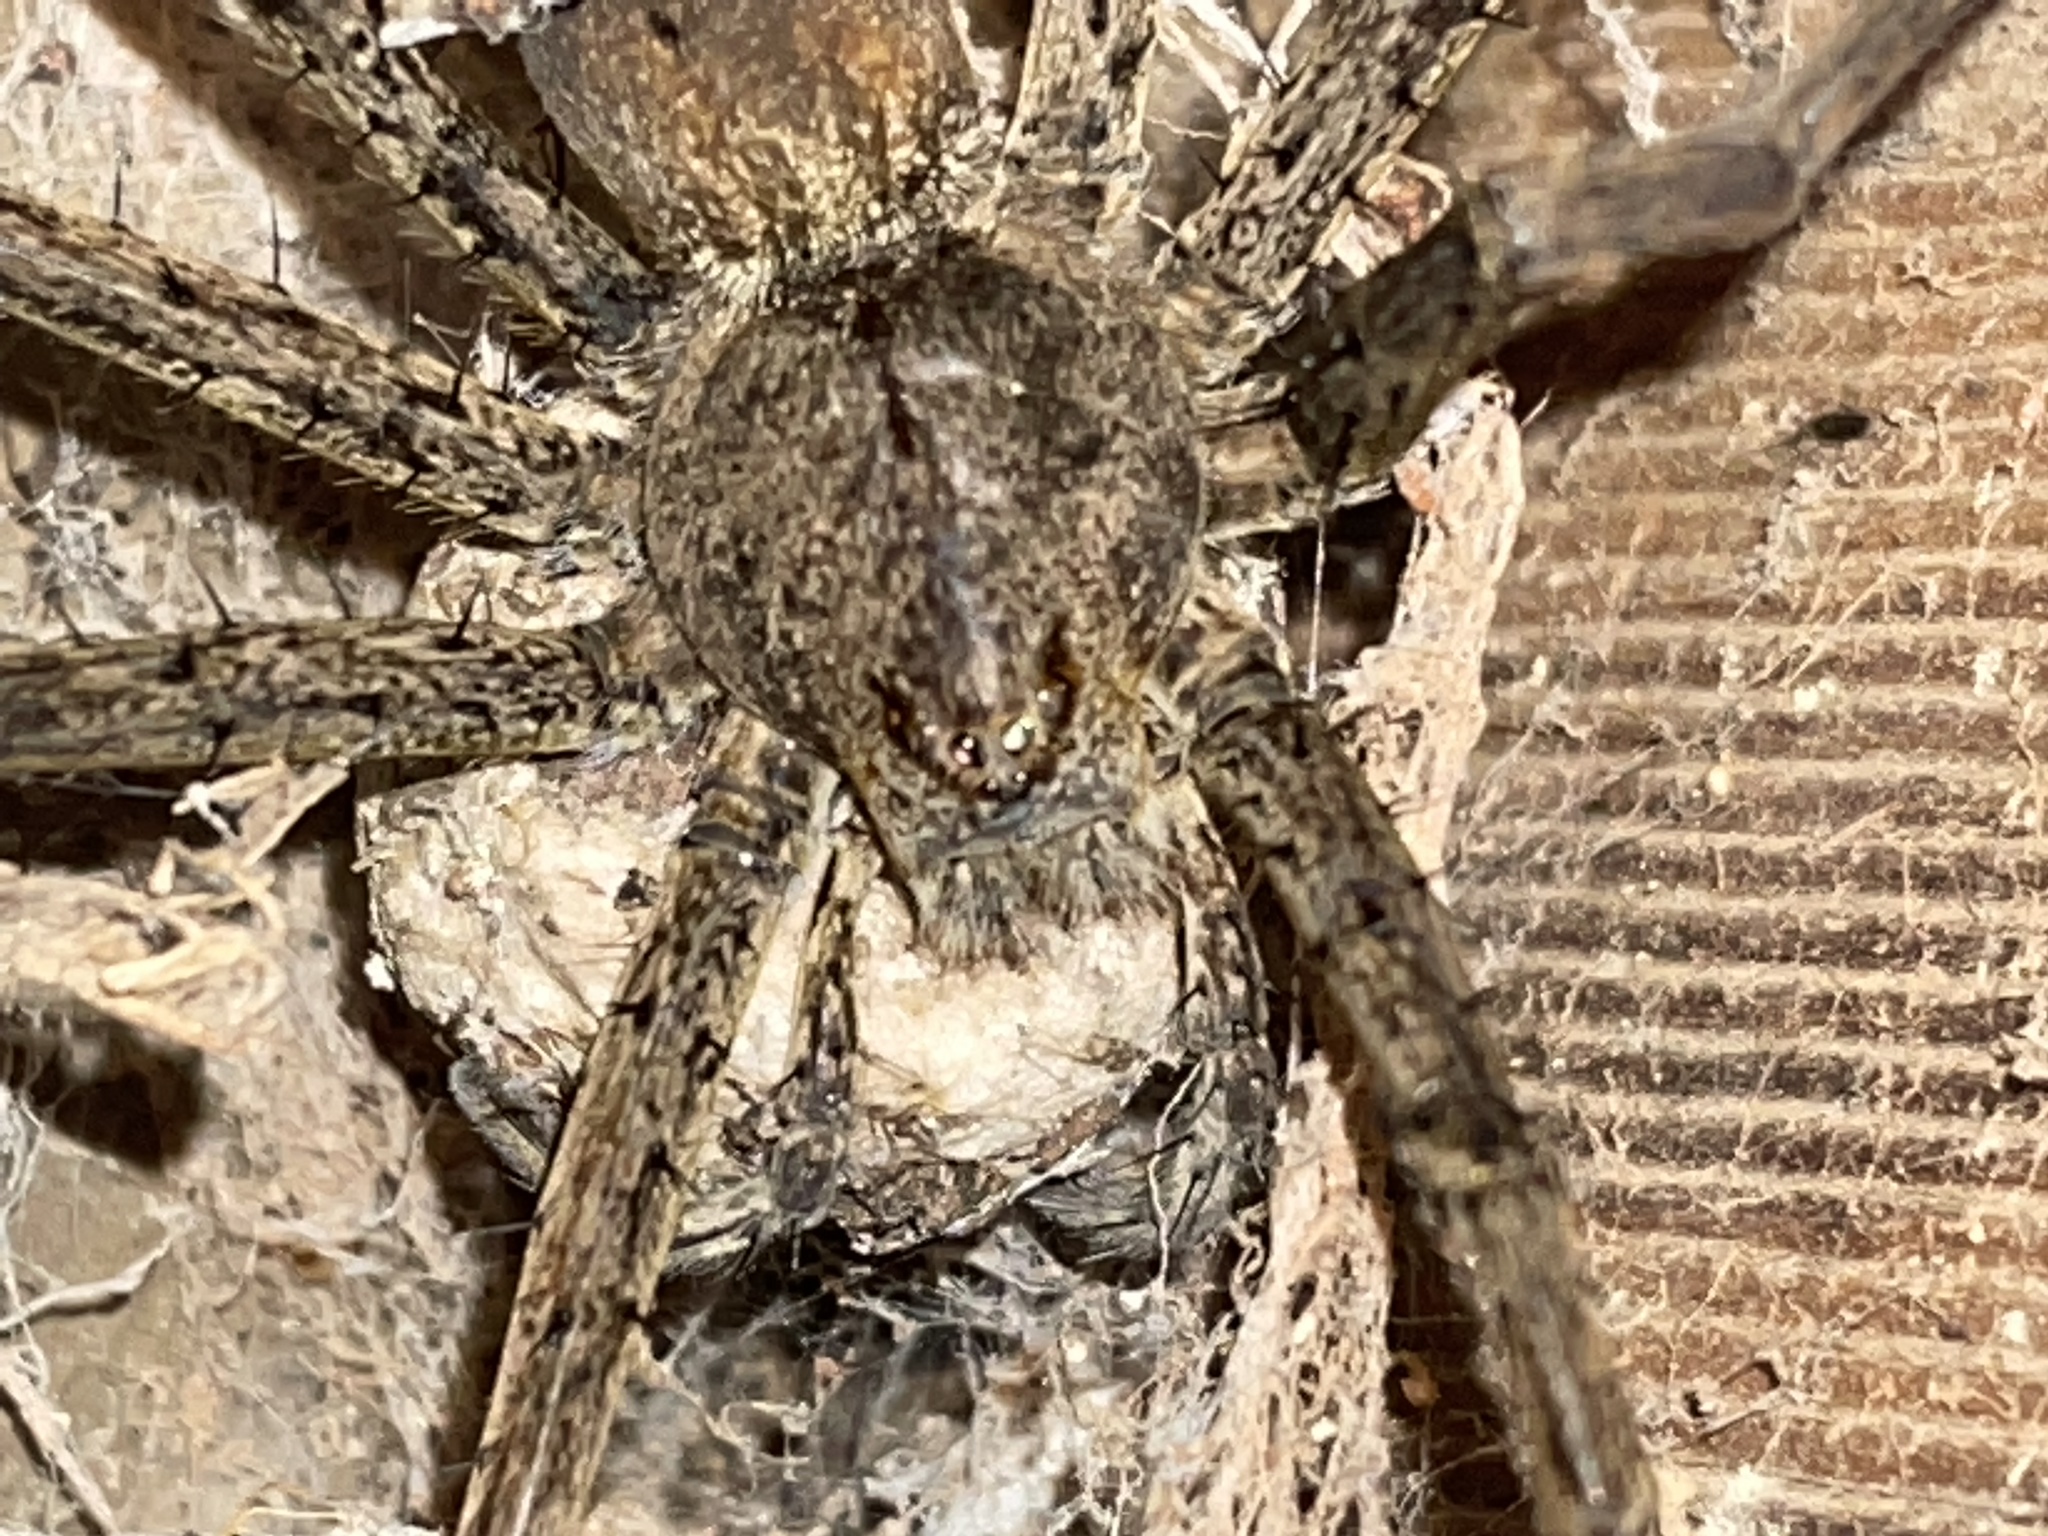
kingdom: Animalia
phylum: Arthropoda
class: Arachnida
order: Araneae
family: Pisauridae
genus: Megadolomedes
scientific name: Megadolomedes trux
